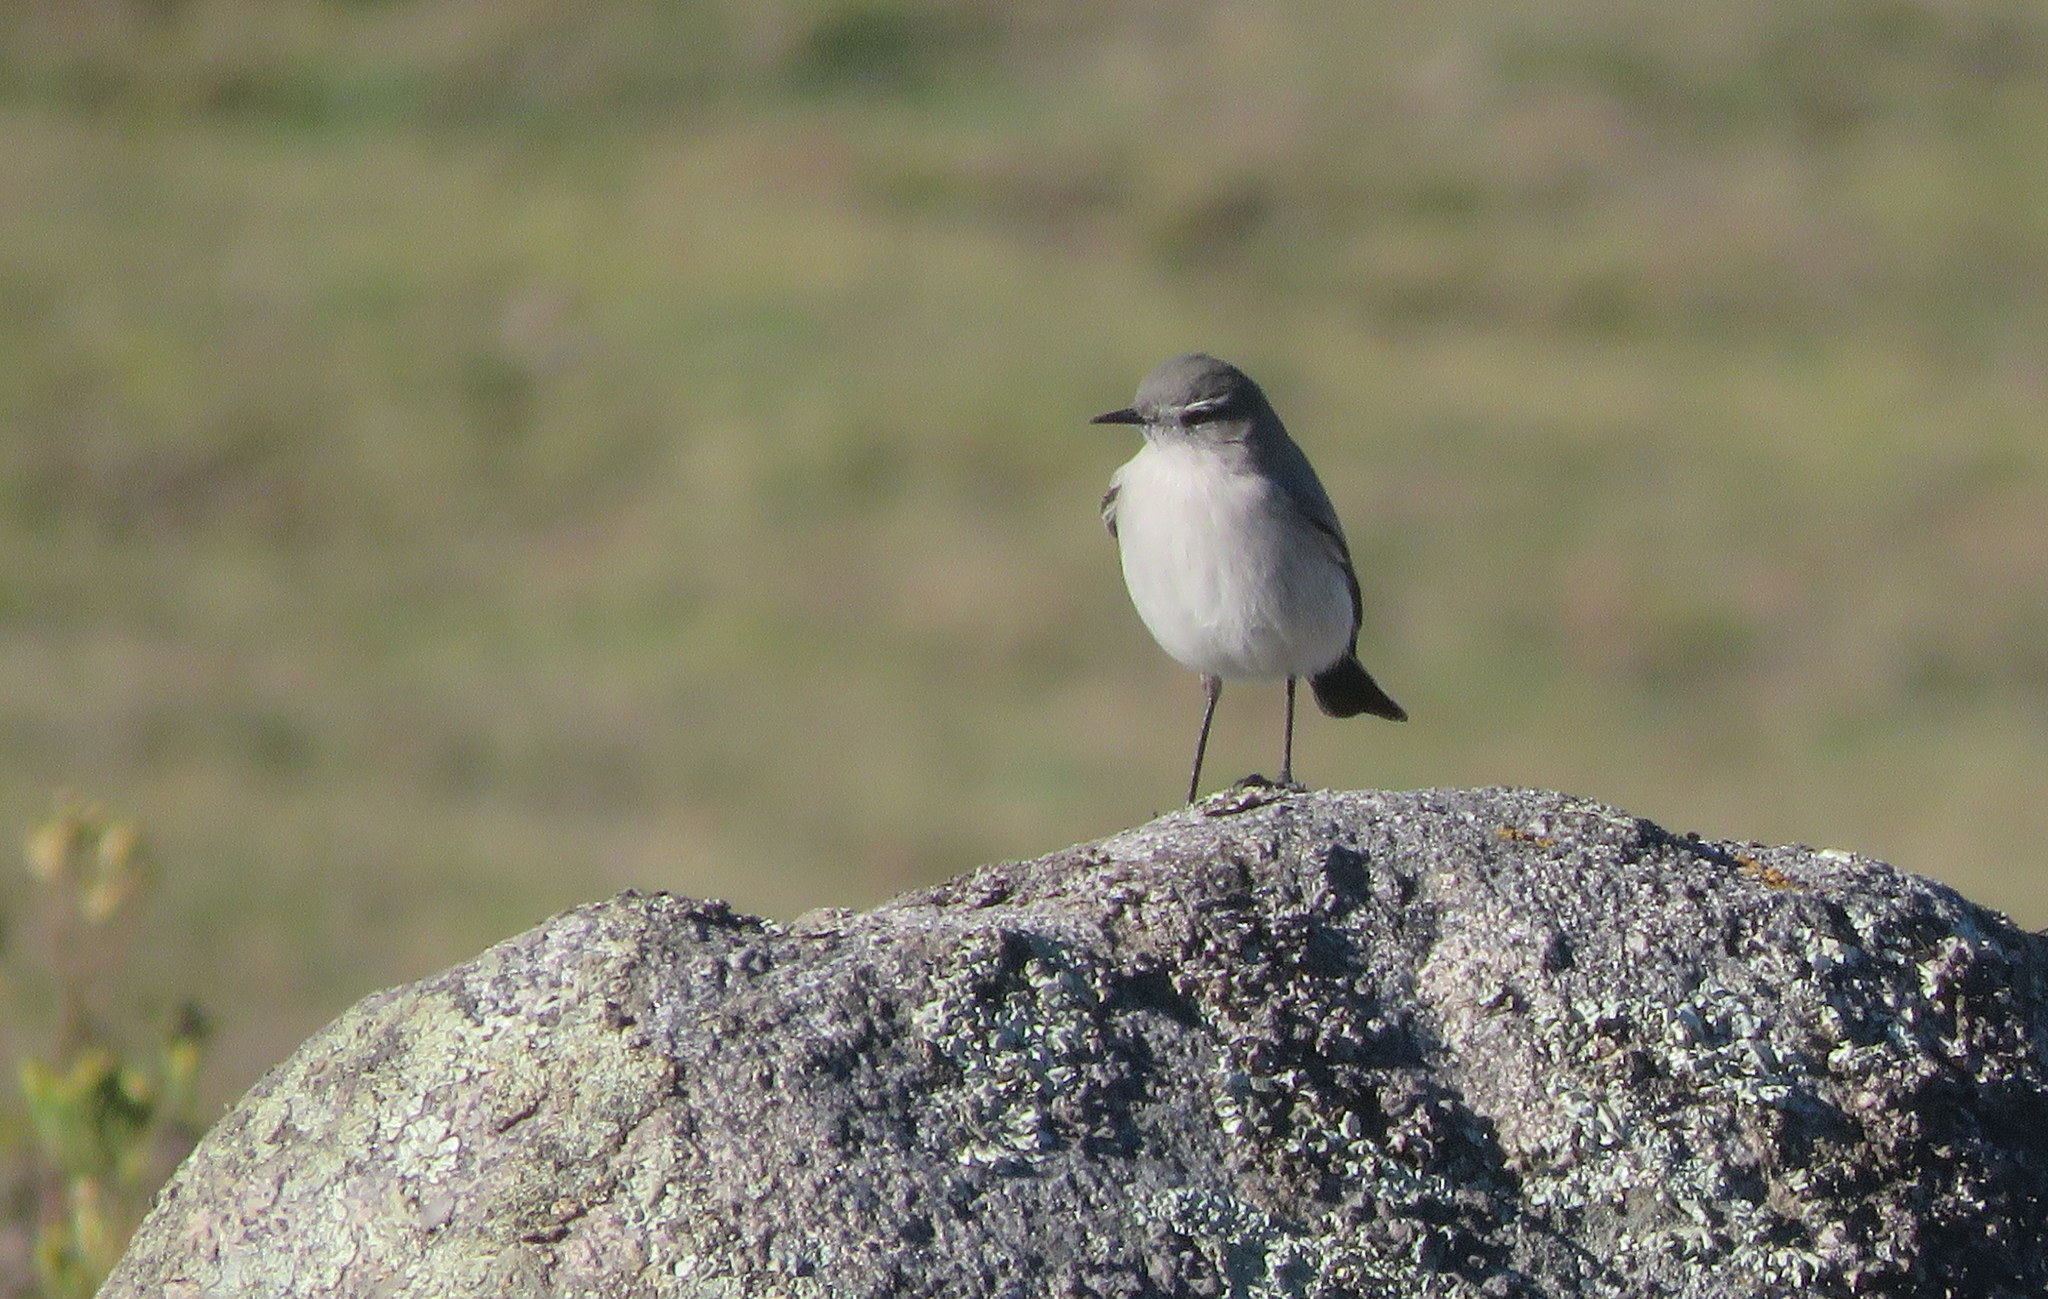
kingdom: Animalia
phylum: Chordata
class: Aves
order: Passeriformes
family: Tyrannidae
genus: Muscisaxicola
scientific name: Muscisaxicola cinereus
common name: Cinereous ground tyrant
